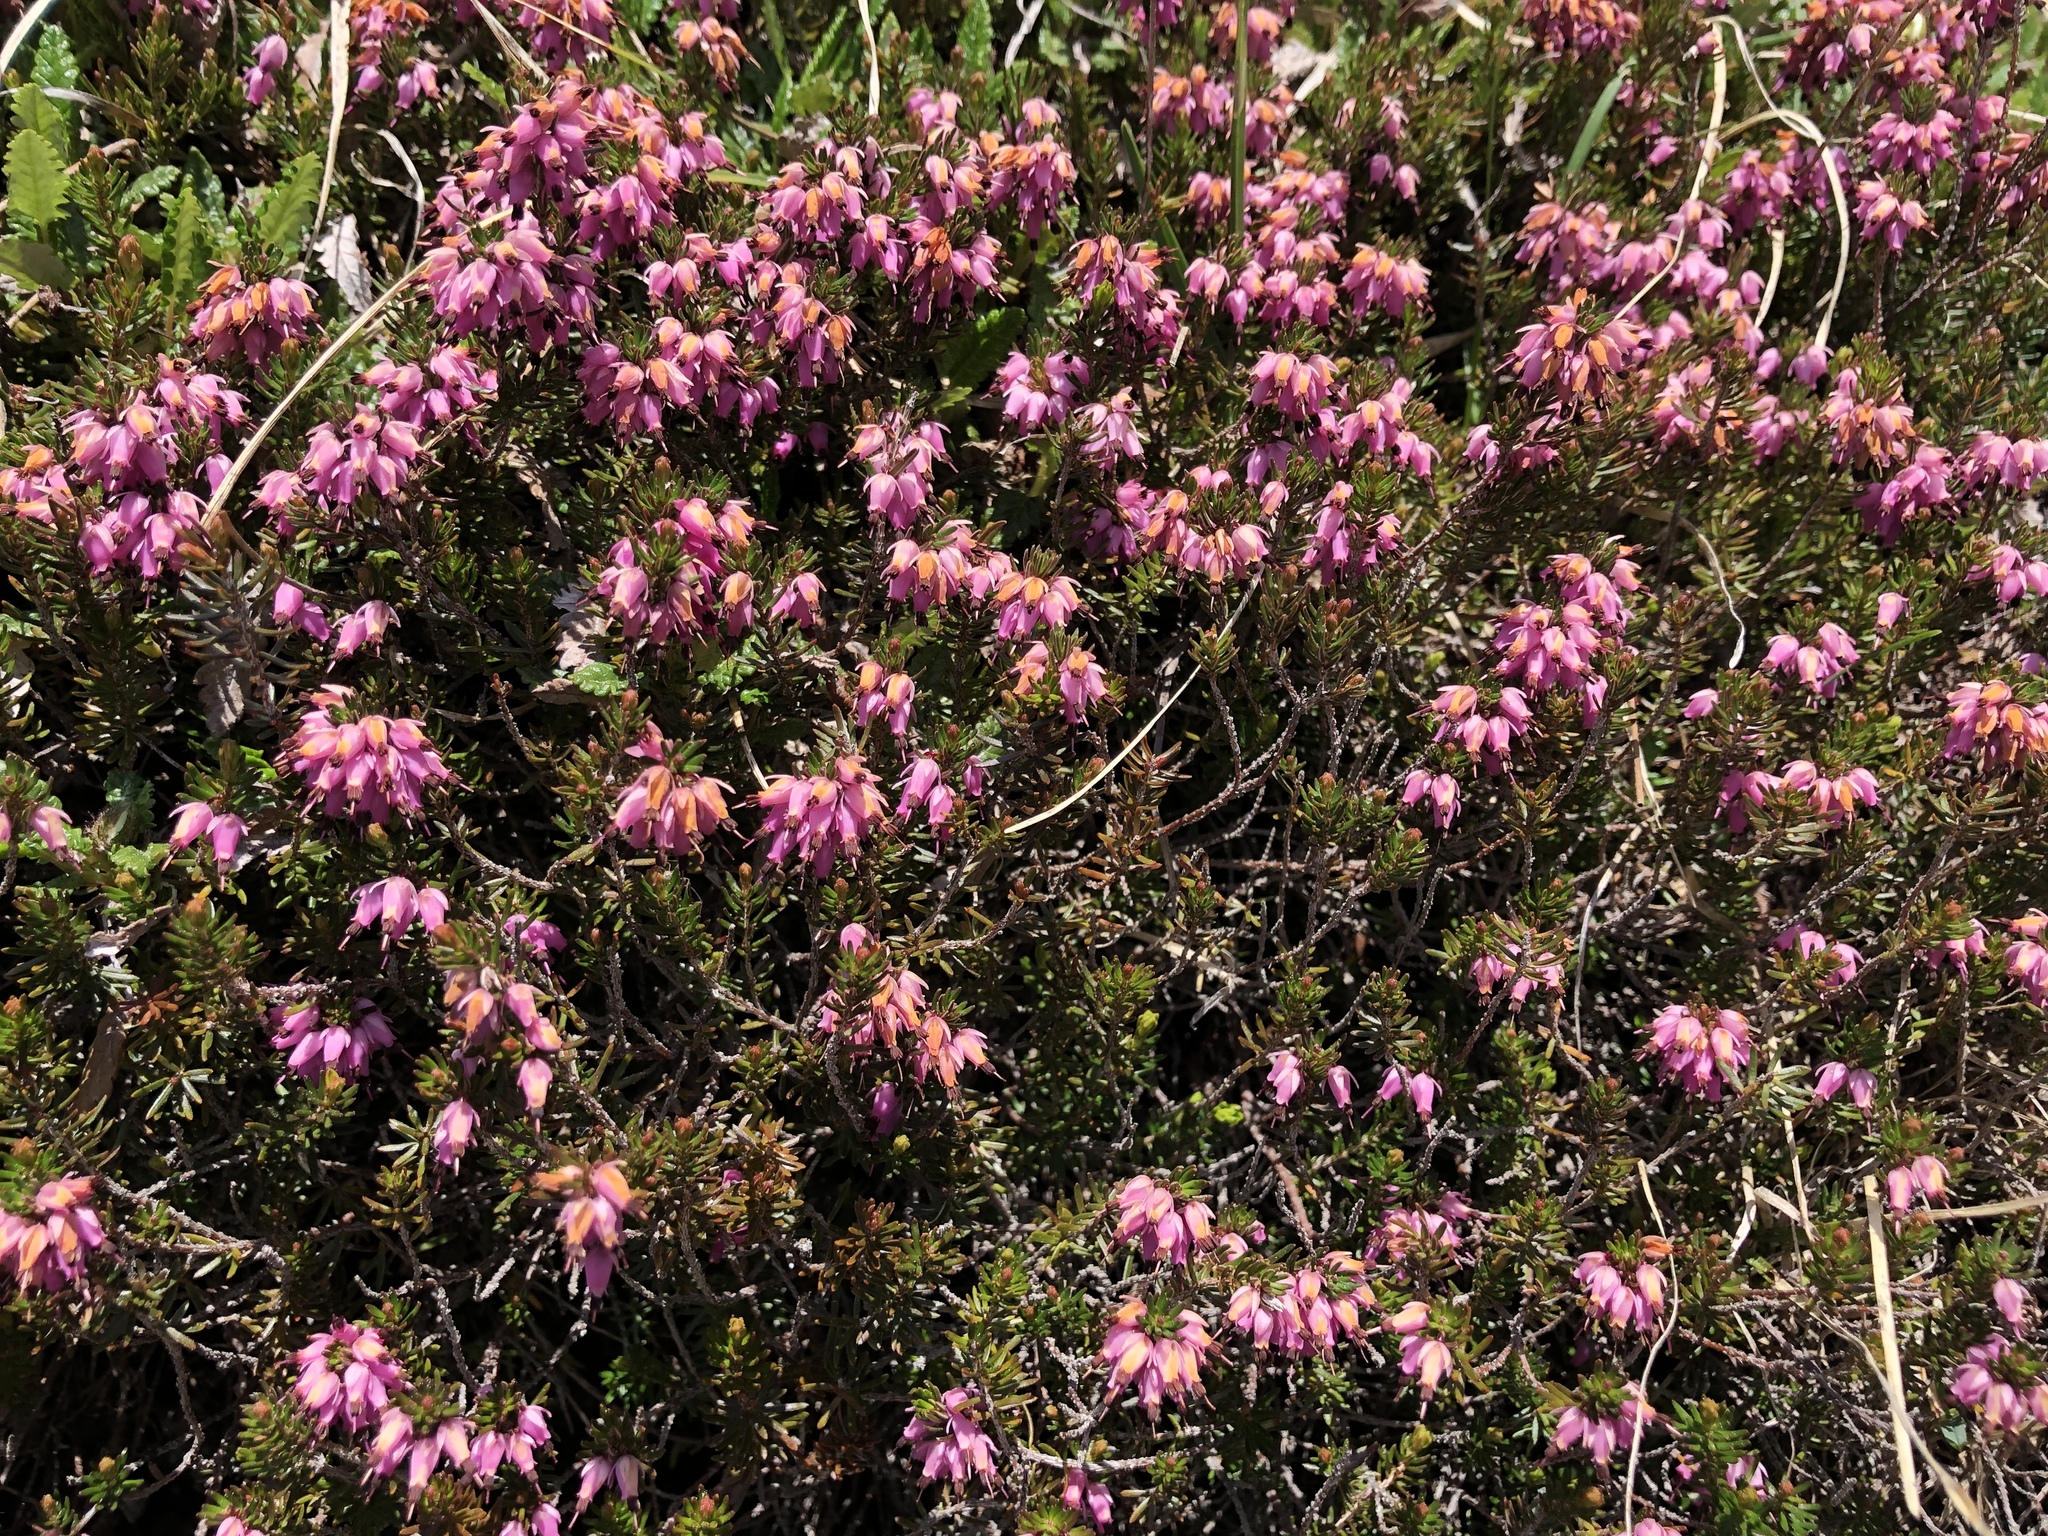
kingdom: Plantae
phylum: Tracheophyta
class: Magnoliopsida
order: Ericales
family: Ericaceae
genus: Erica
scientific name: Erica carnea
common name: Winter heath
